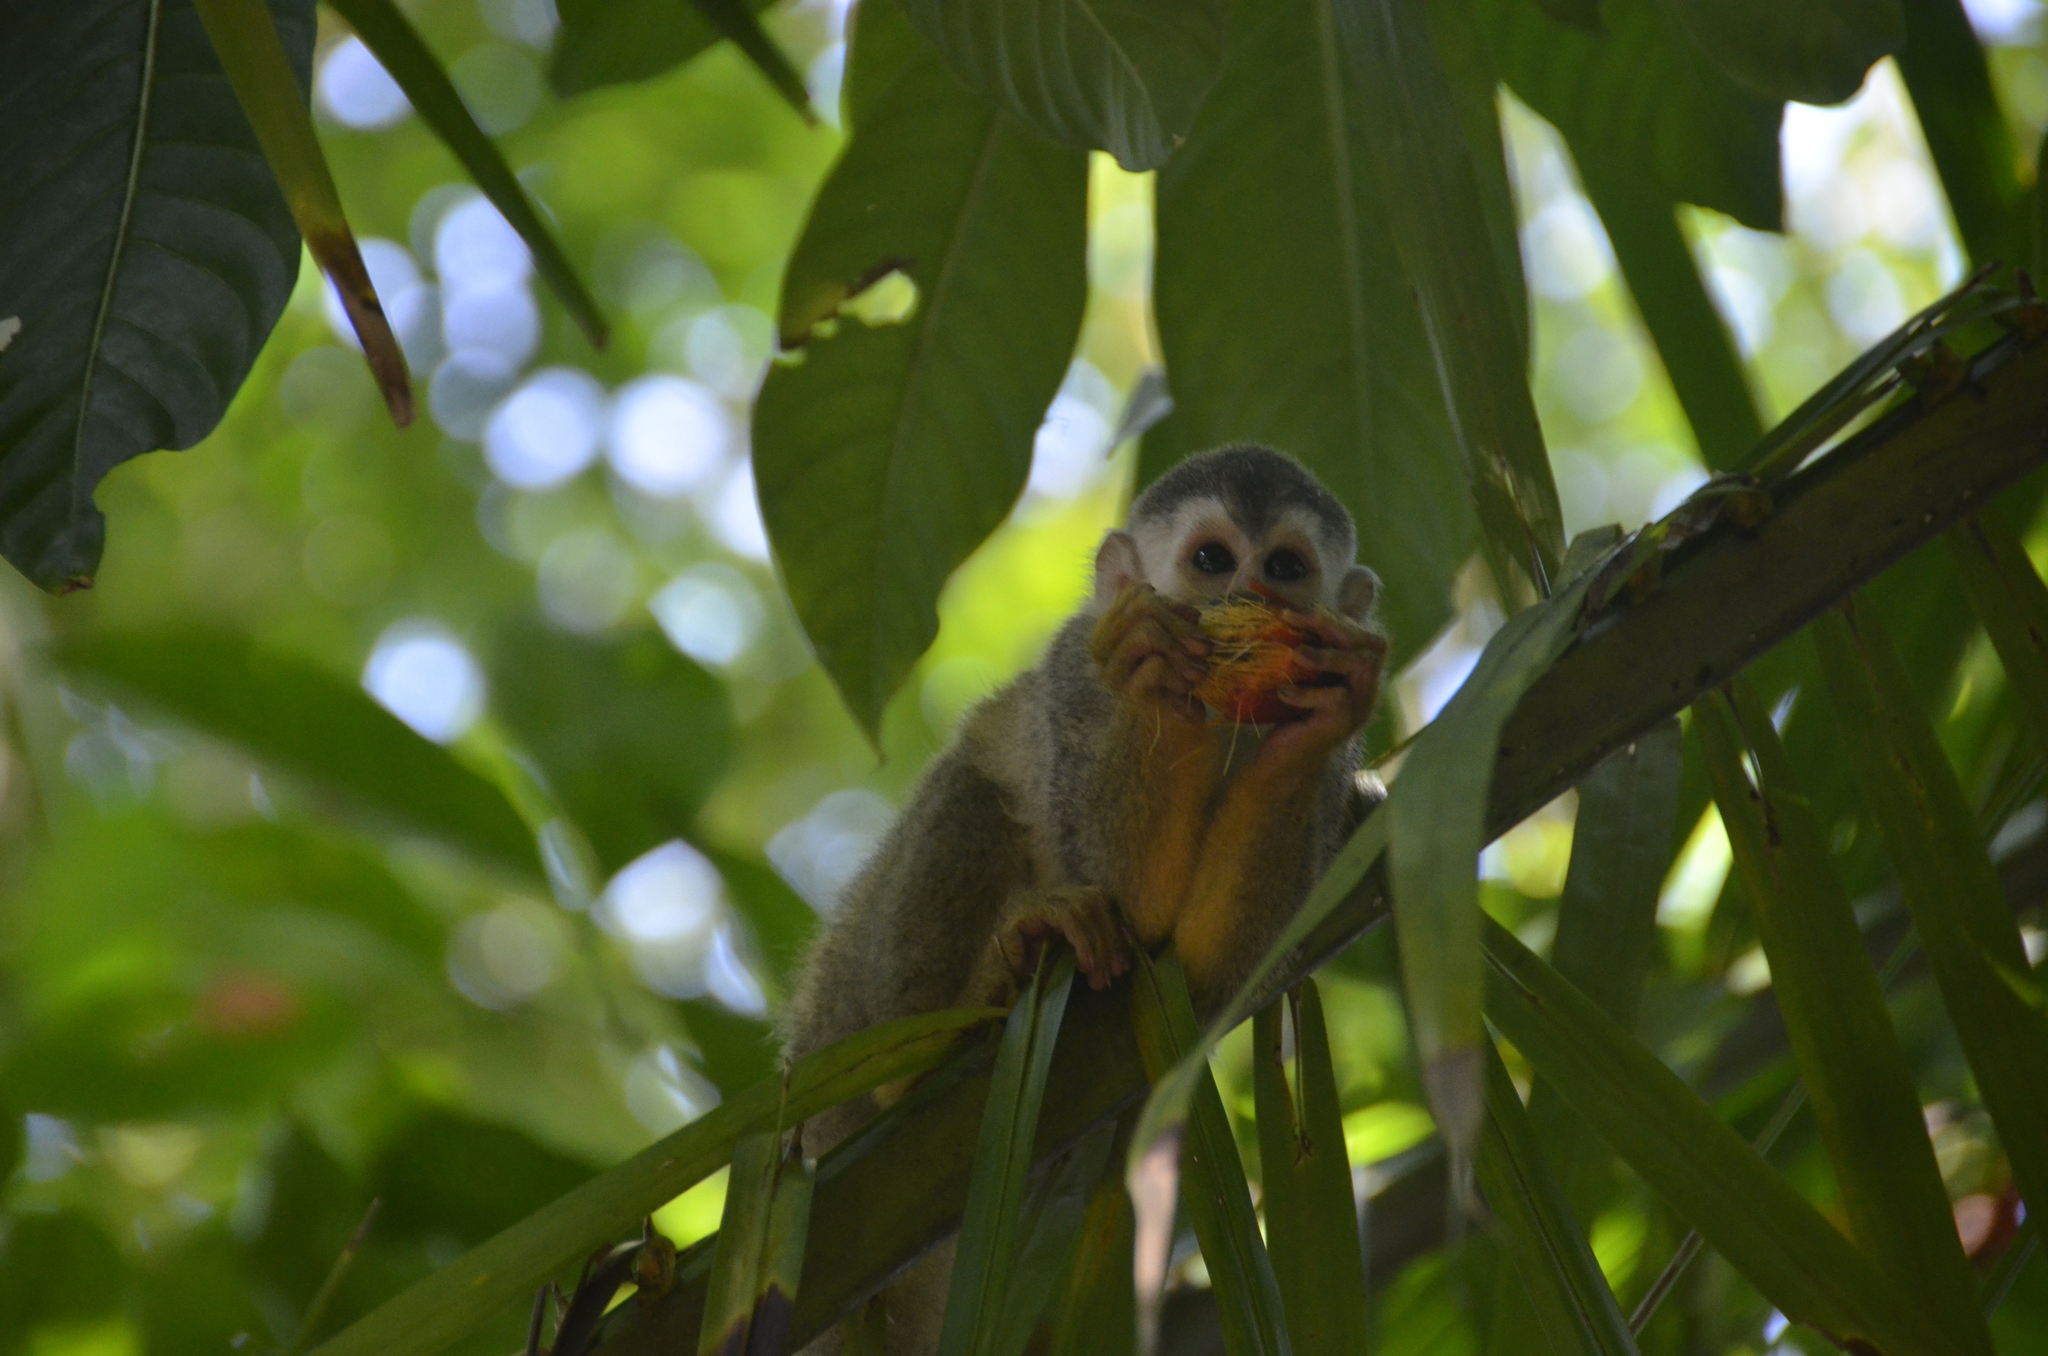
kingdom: Animalia
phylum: Chordata
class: Mammalia
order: Primates
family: Cebidae
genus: Saimiri
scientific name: Saimiri oerstedii
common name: Central american squirrel monkey
